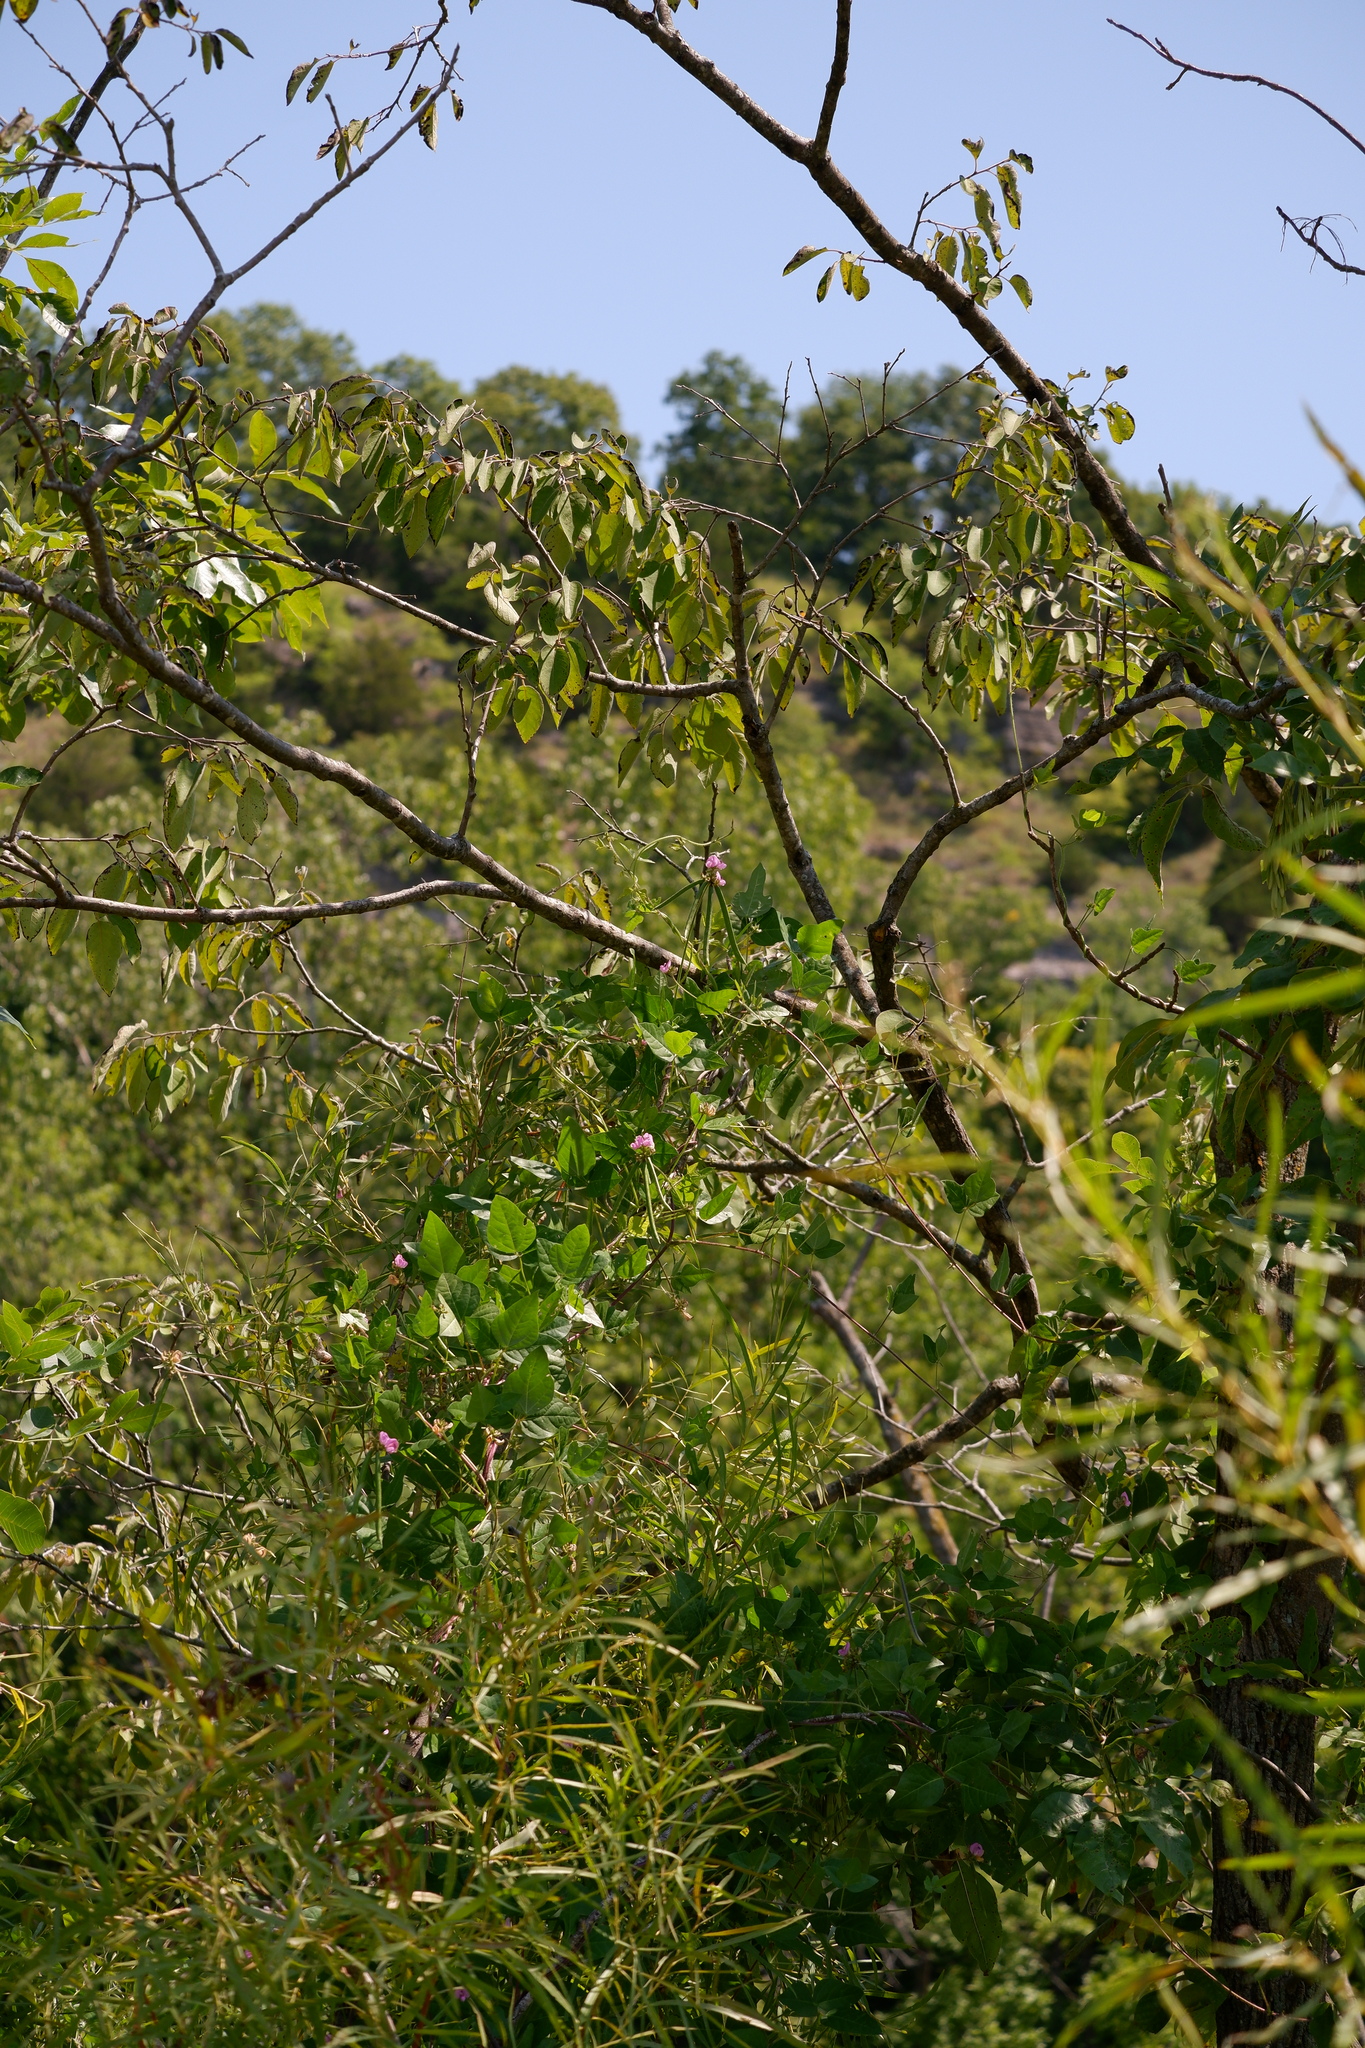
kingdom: Plantae
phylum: Tracheophyta
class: Magnoliopsida
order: Fabales
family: Fabaceae
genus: Strophostyles
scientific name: Strophostyles helvola
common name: Trailing wild bean
